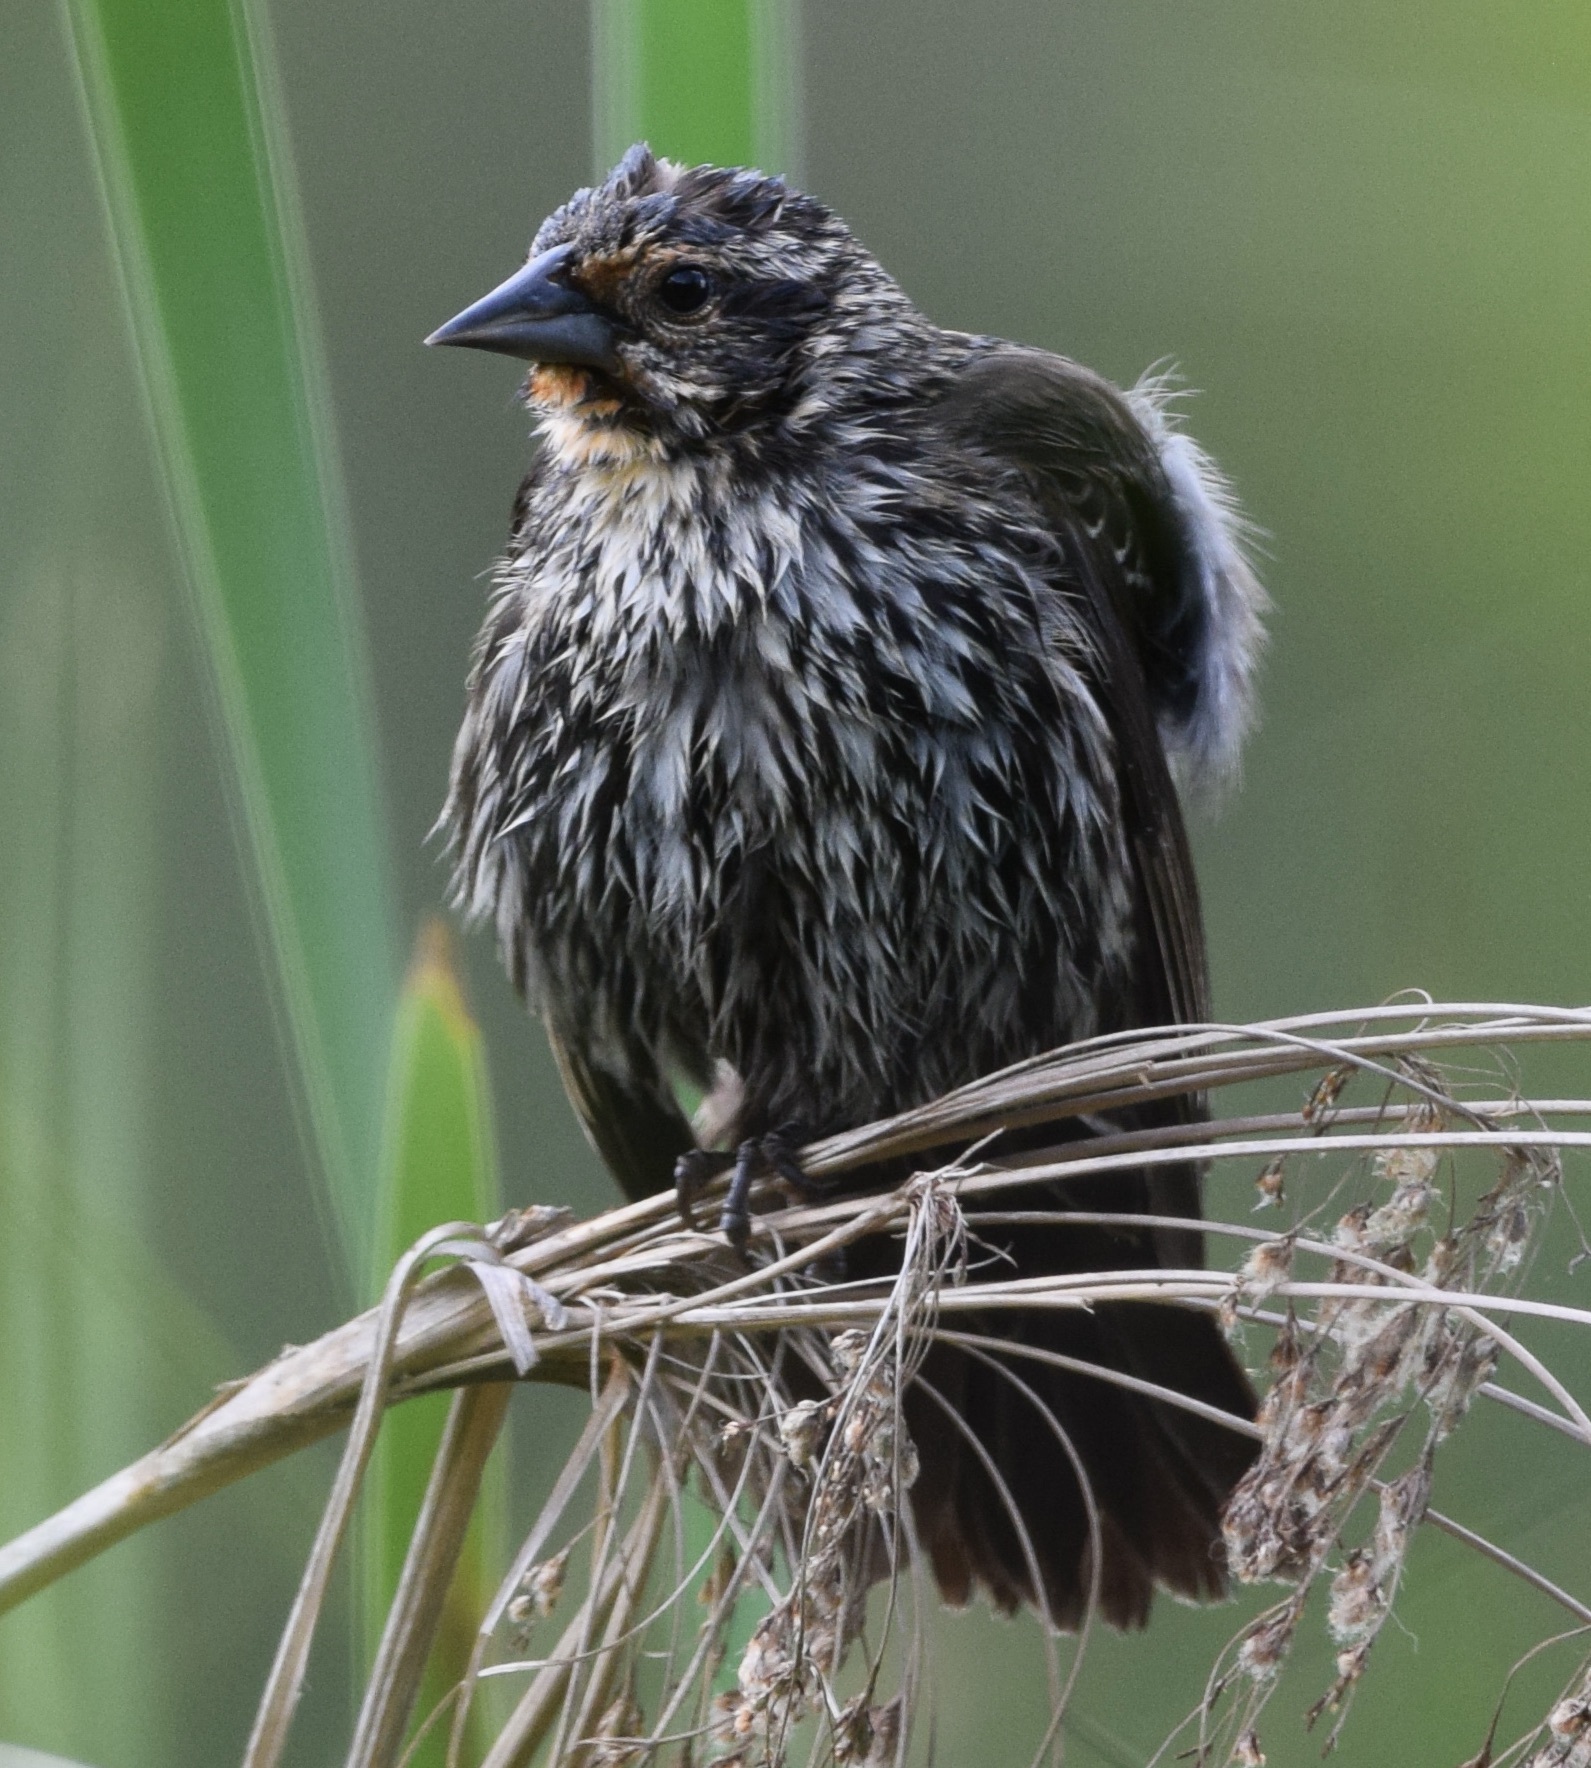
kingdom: Animalia
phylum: Chordata
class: Aves
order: Passeriformes
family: Icteridae
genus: Agelaius
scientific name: Agelaius phoeniceus
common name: Red-winged blackbird
